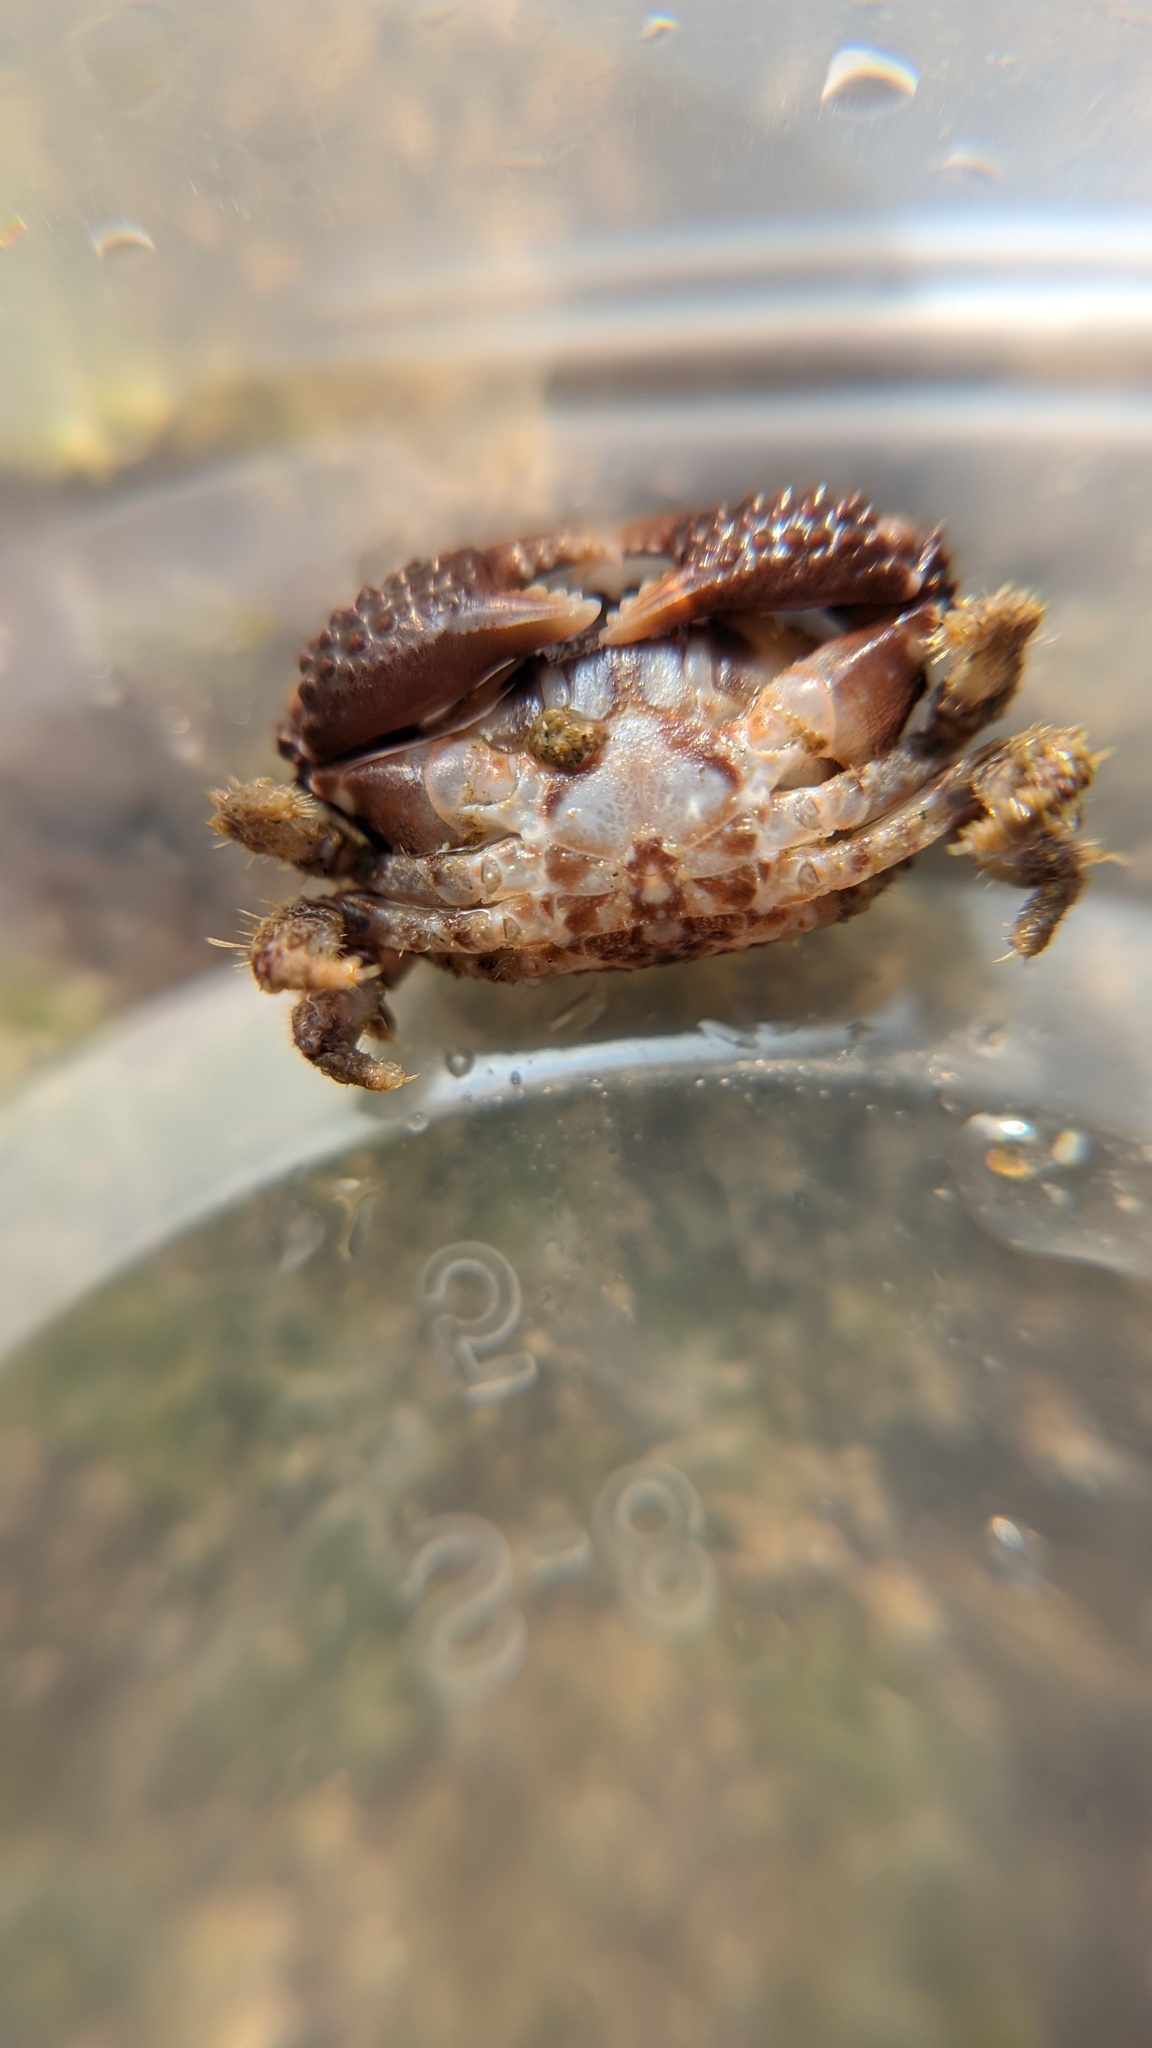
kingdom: Animalia
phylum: Arthropoda
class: Malacostraca
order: Decapoda
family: Xanthidae
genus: Paraxanthias
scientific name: Paraxanthias taylori
